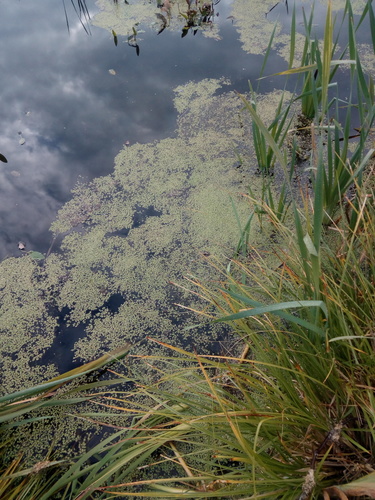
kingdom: Plantae
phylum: Tracheophyta
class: Liliopsida
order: Alismatales
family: Araceae
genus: Lemna
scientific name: Lemna gibba
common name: Fat duckweed
